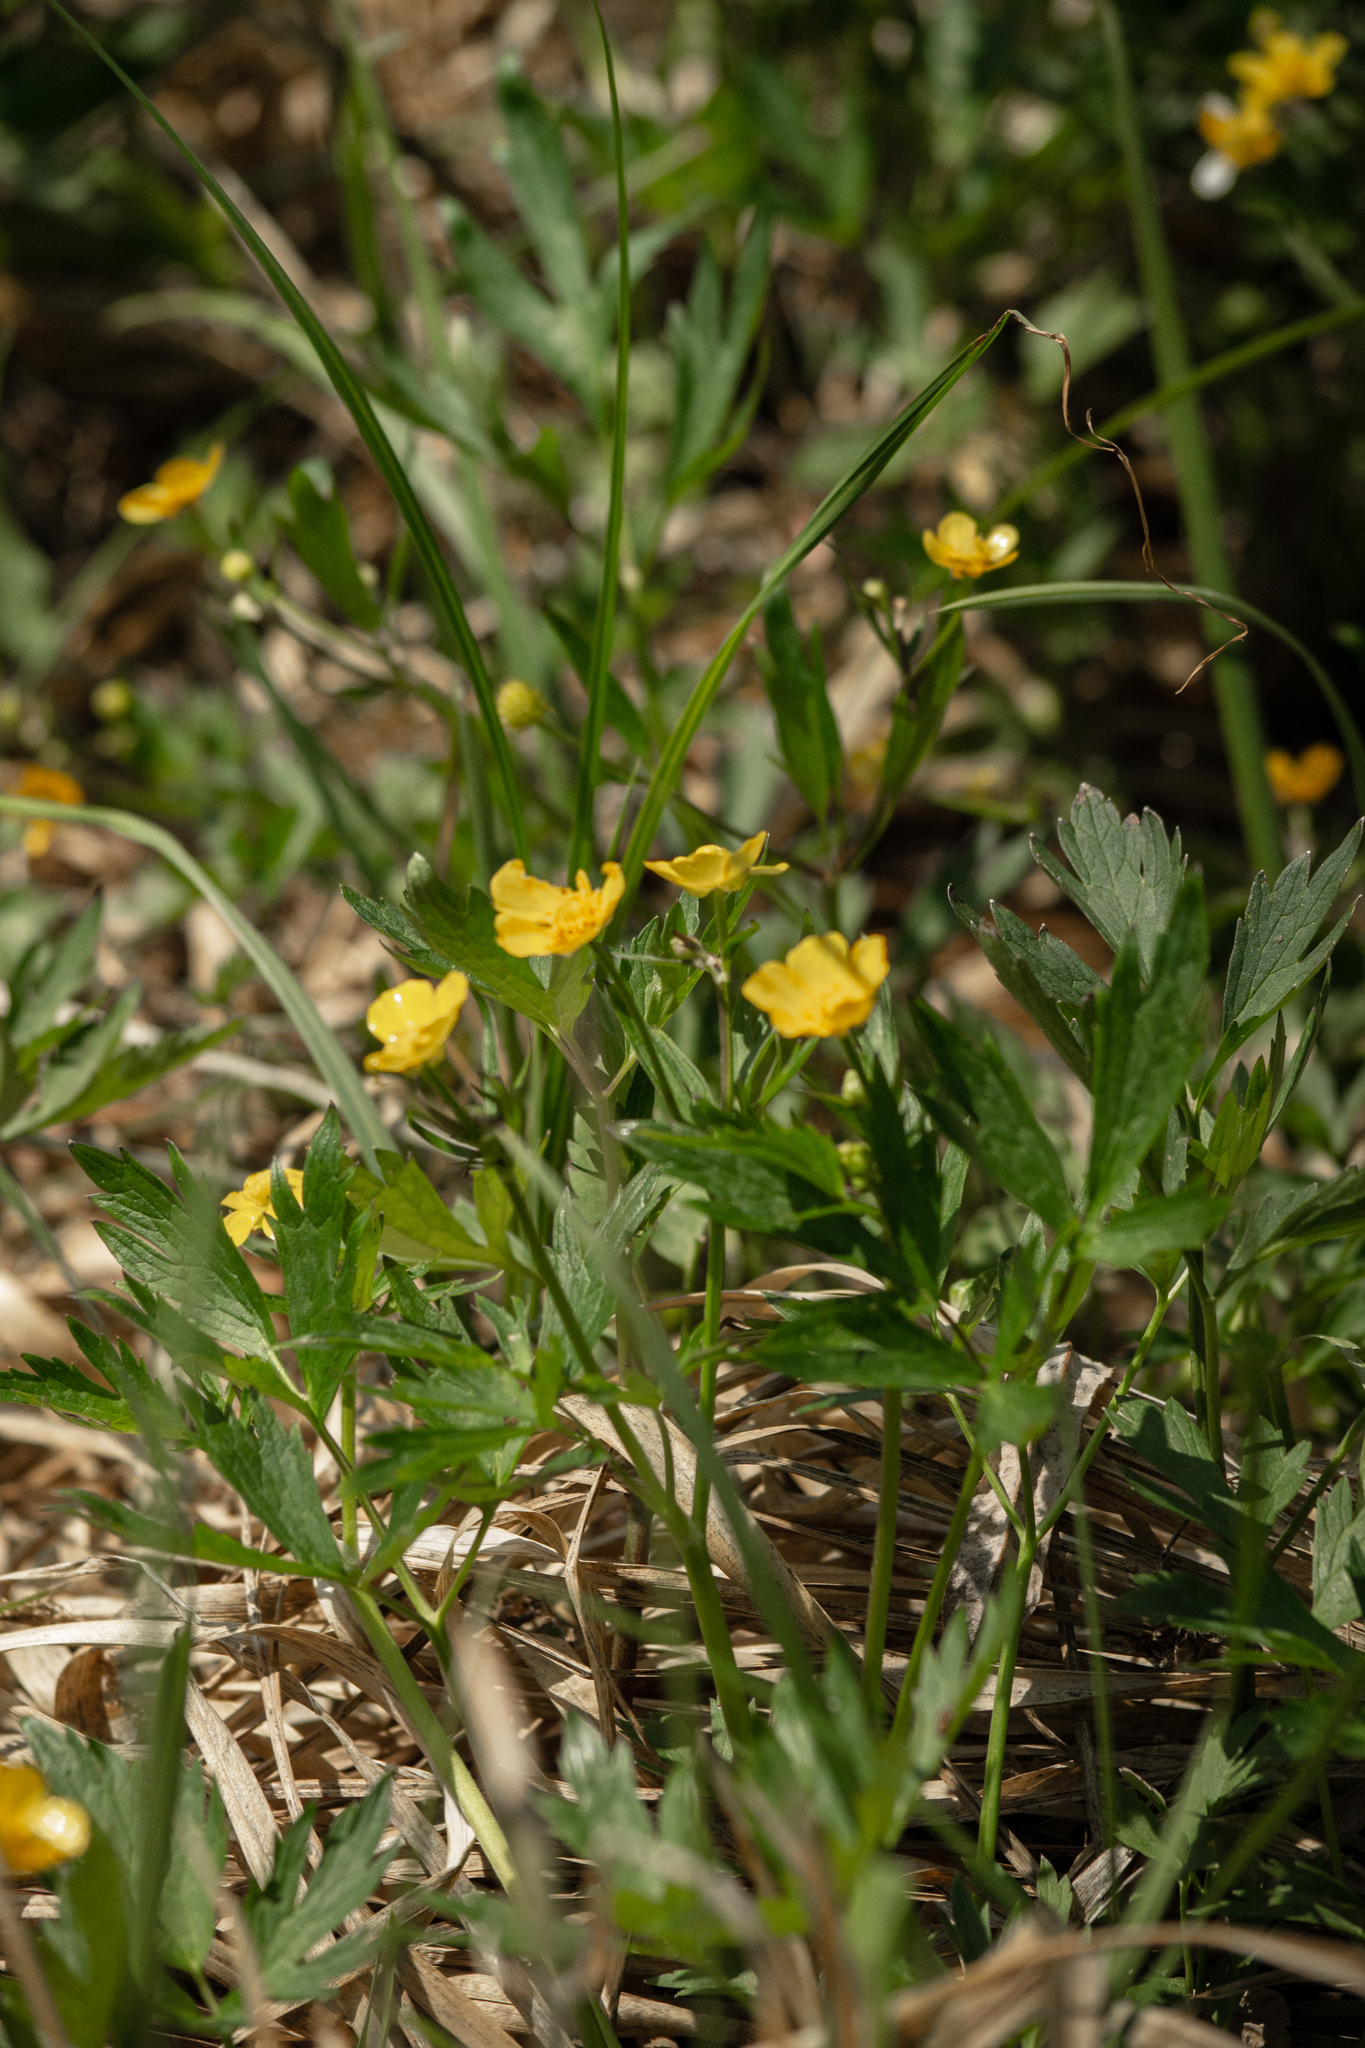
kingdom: Plantae
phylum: Tracheophyta
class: Magnoliopsida
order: Ranunculales
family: Ranunculaceae
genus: Ranunculus
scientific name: Ranunculus repens
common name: Creeping buttercup
